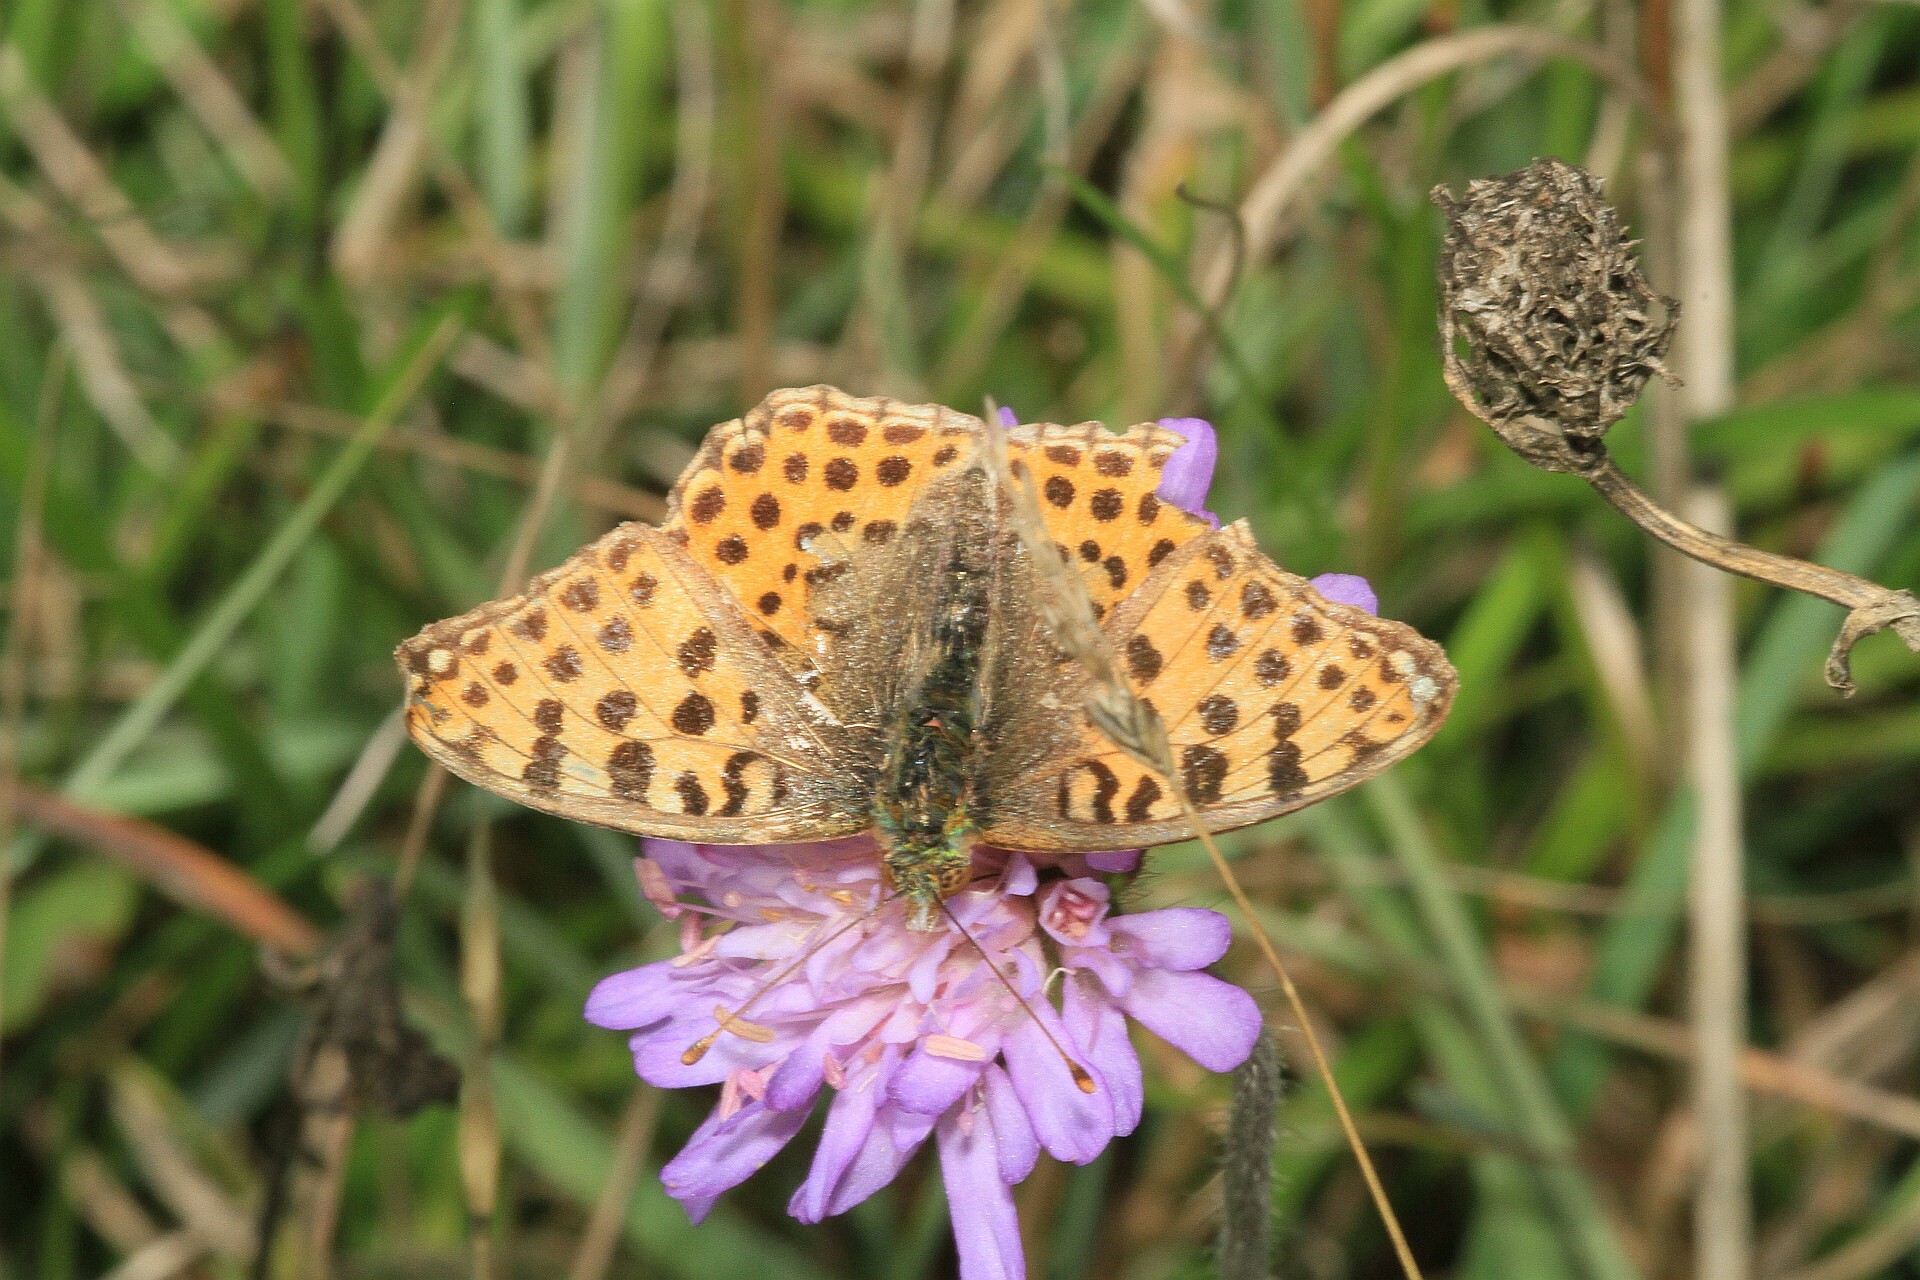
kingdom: Animalia
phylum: Arthropoda
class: Insecta
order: Lepidoptera
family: Nymphalidae
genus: Issoria
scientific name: Issoria lathonia
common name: Queen of spain fritillary
